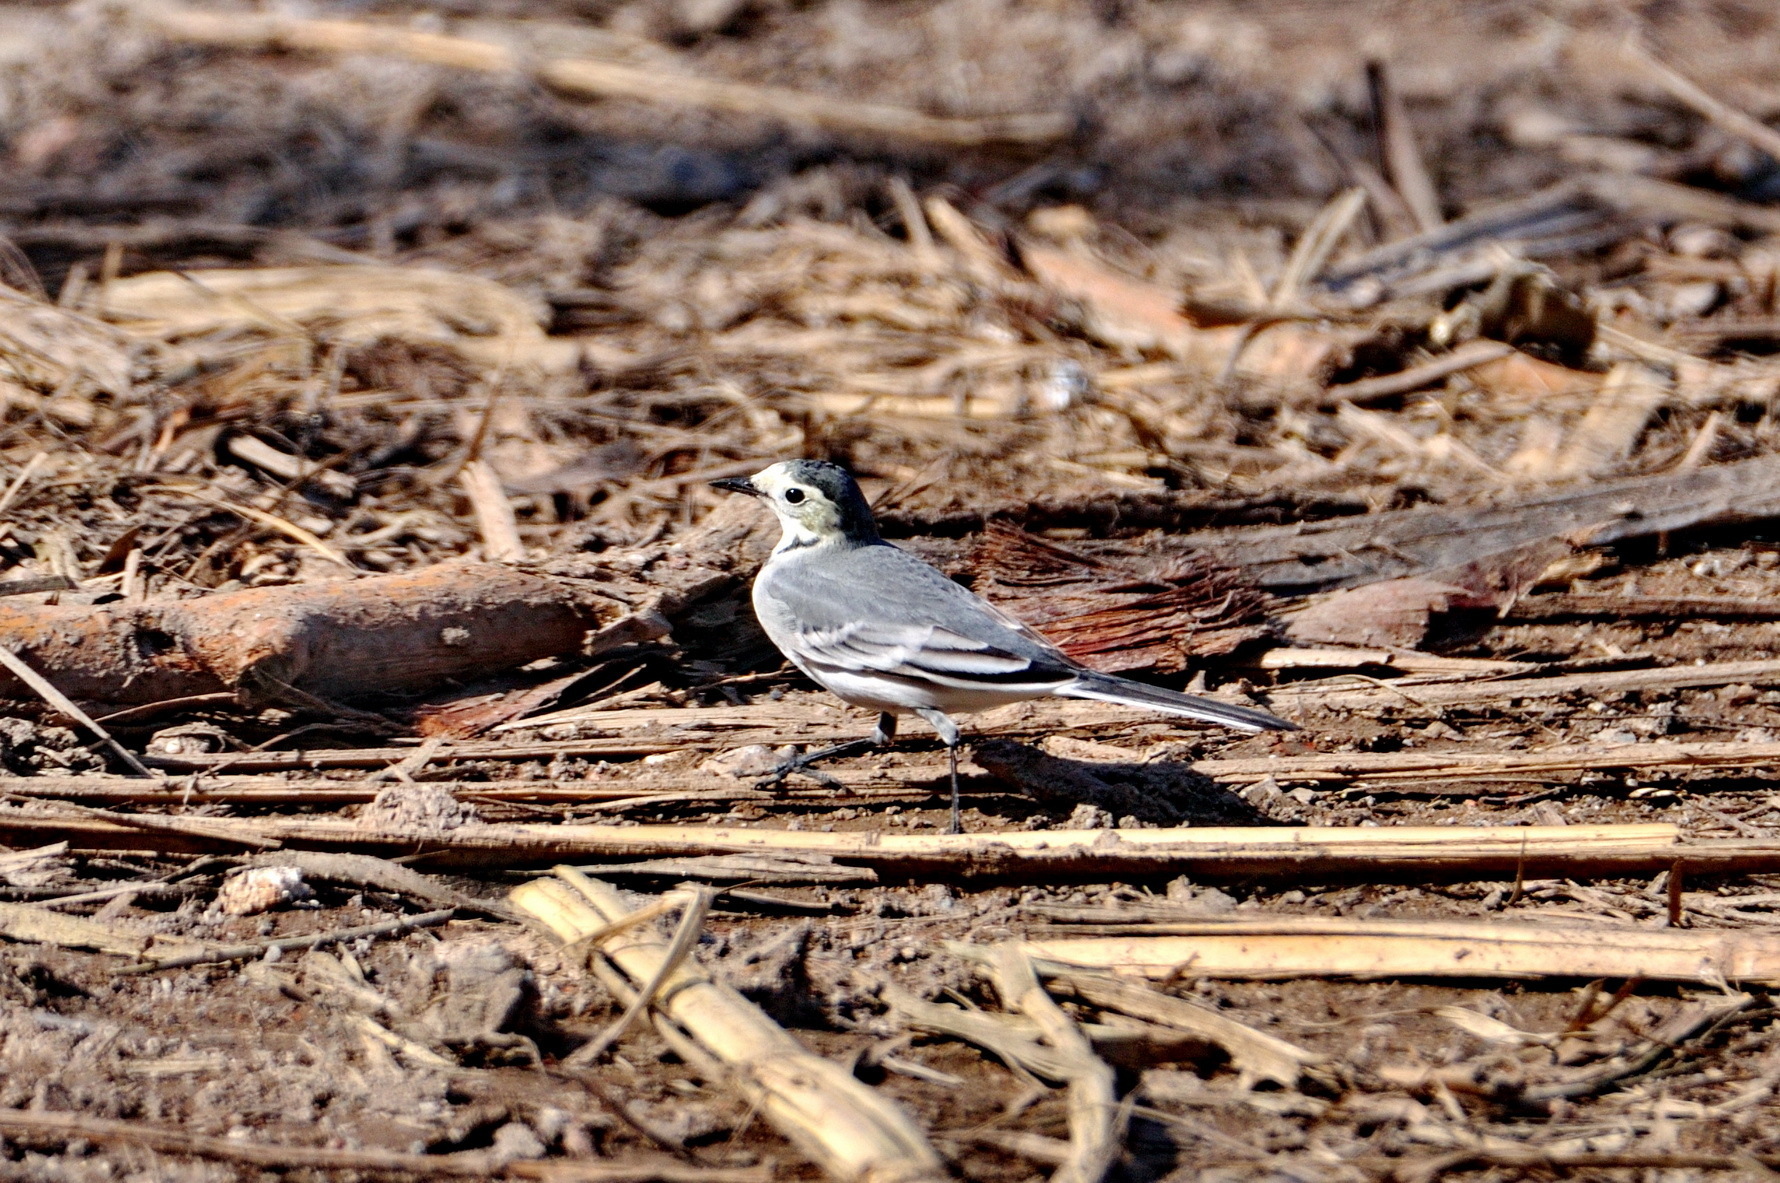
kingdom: Animalia
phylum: Chordata
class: Aves
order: Passeriformes
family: Motacillidae
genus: Motacilla
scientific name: Motacilla alba
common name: White wagtail
